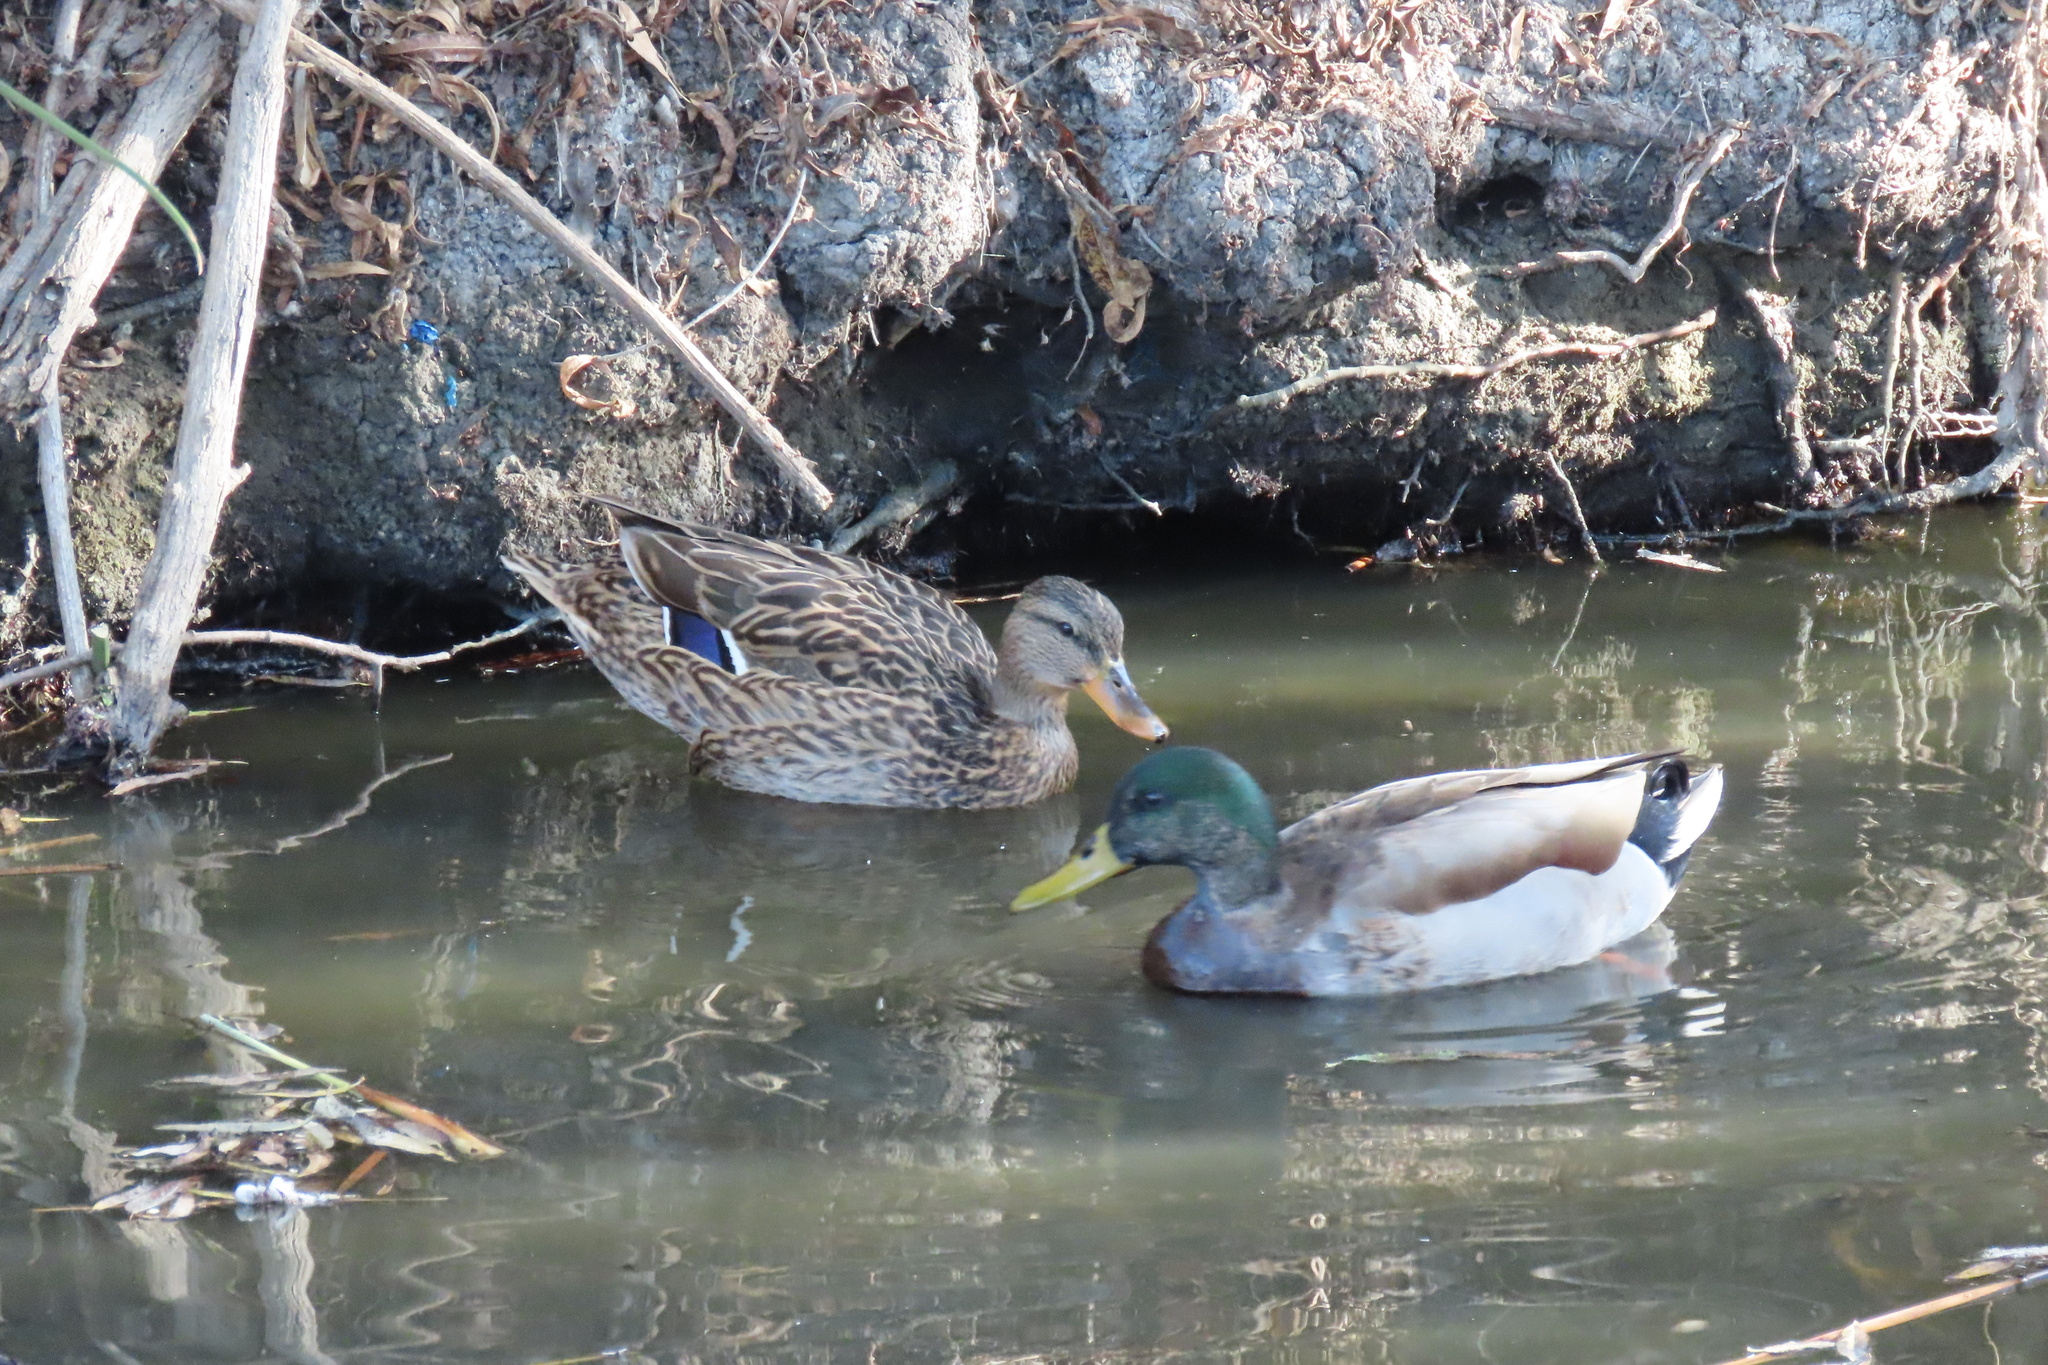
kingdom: Animalia
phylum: Chordata
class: Aves
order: Anseriformes
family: Anatidae
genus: Anas
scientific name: Anas platyrhynchos
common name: Mallard
